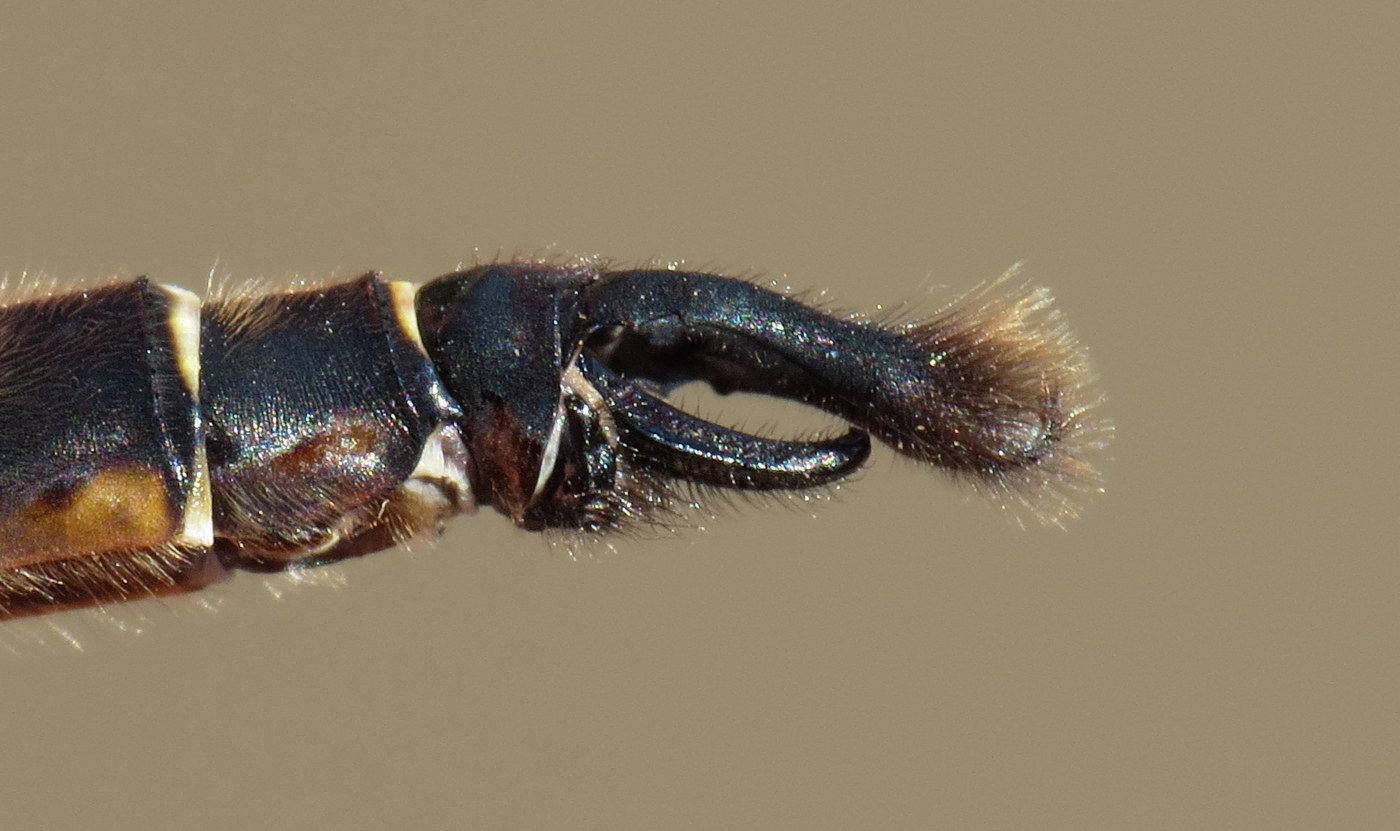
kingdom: Animalia
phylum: Arthropoda
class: Insecta
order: Odonata
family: Corduliidae
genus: Somatochlora
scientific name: Somatochlora walshii
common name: Brush-tipped emerald
